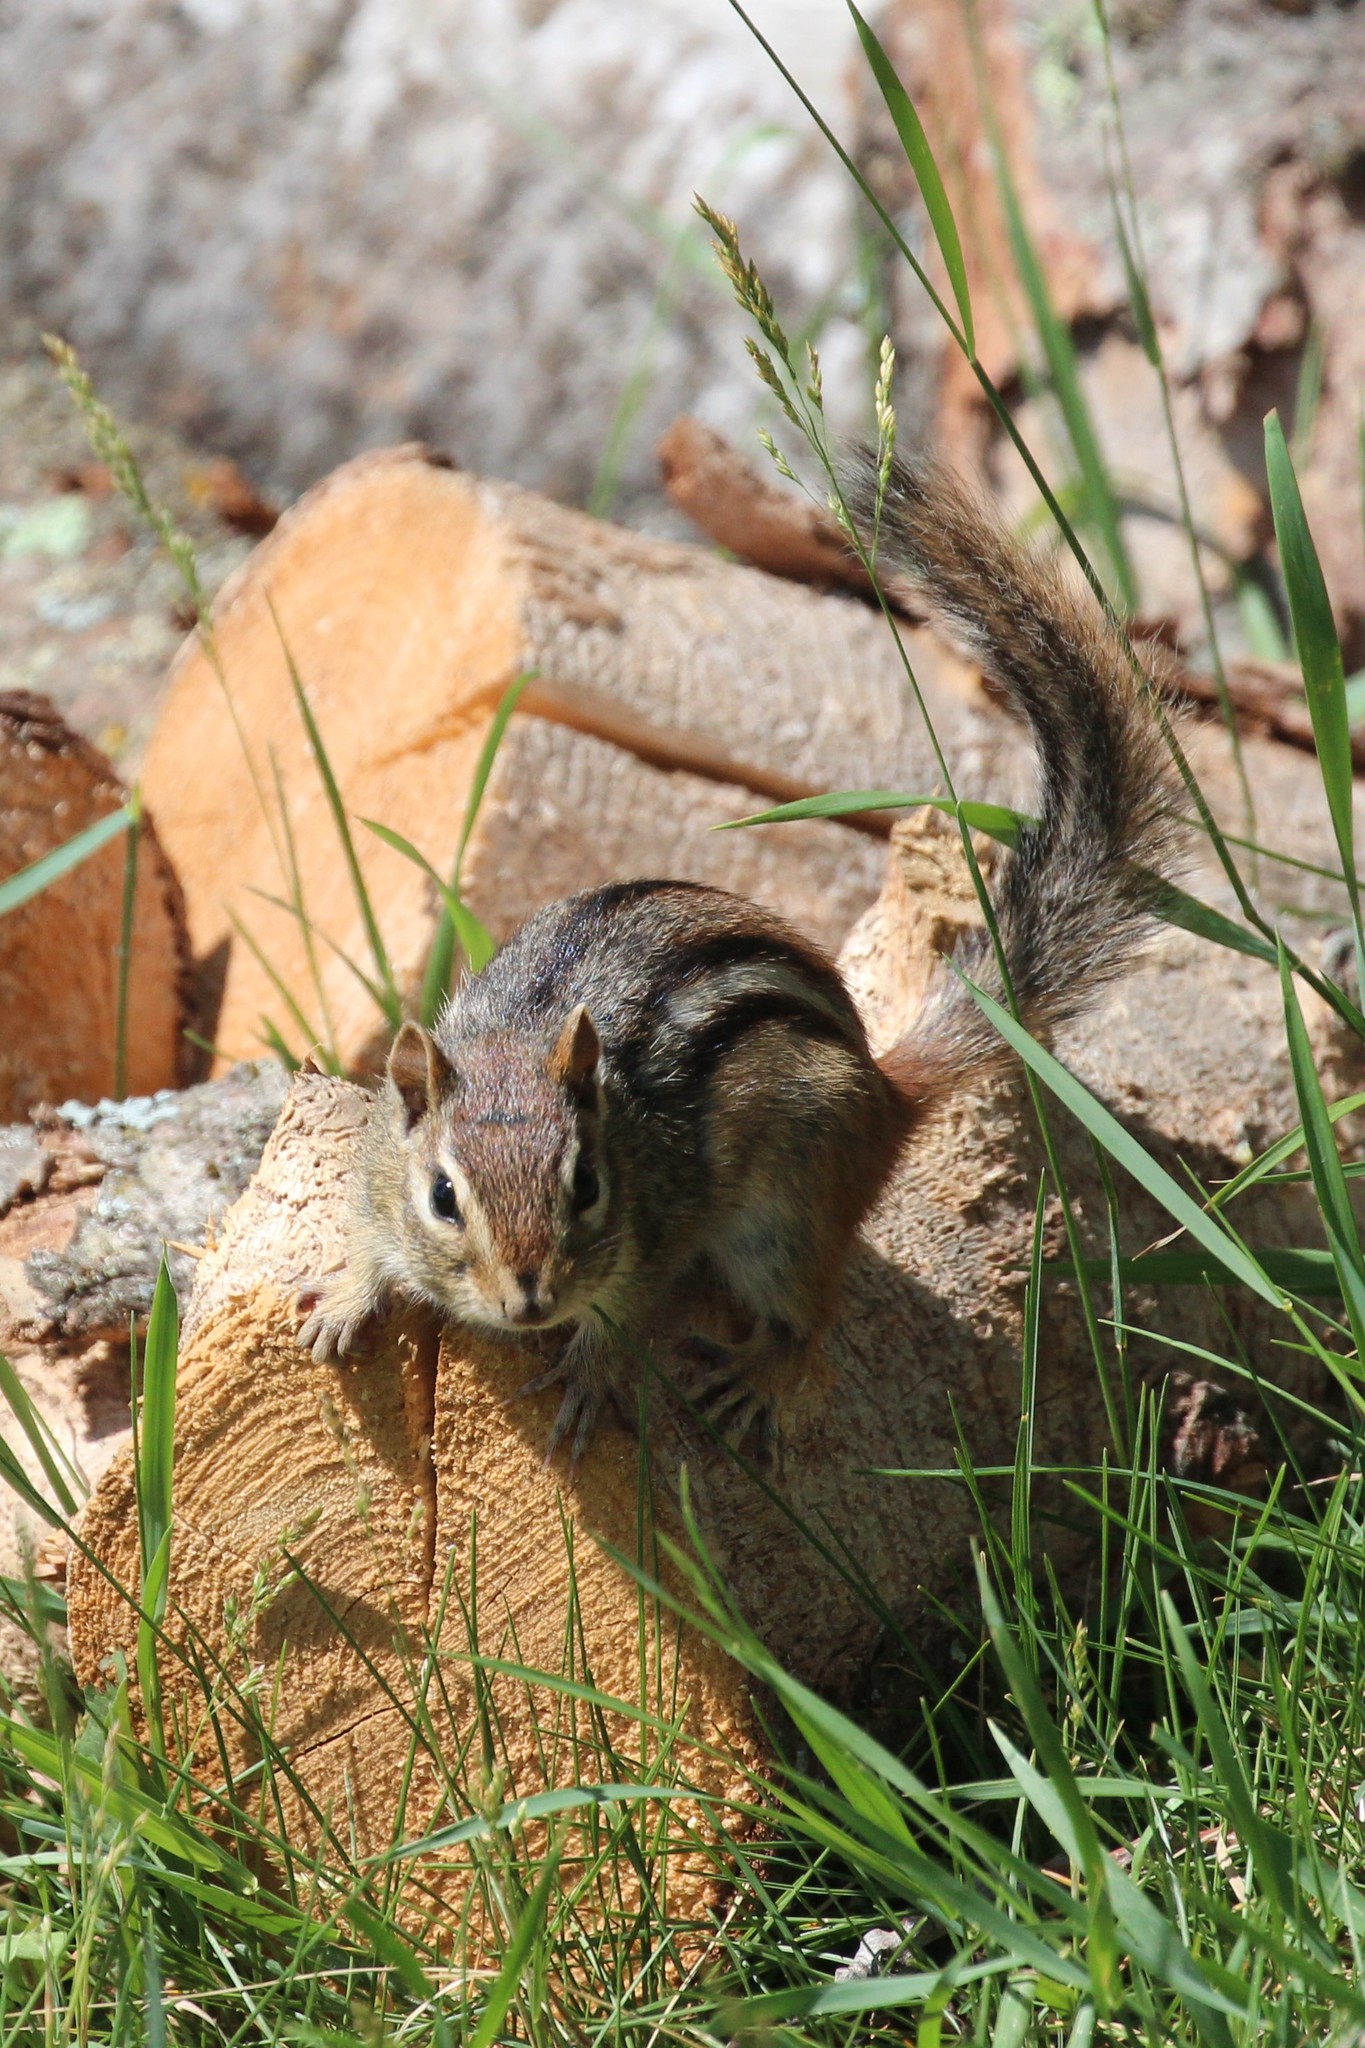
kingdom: Animalia
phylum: Chordata
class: Mammalia
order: Rodentia
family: Sciuridae
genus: Tamias
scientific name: Tamias striatus
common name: Eastern chipmunk
